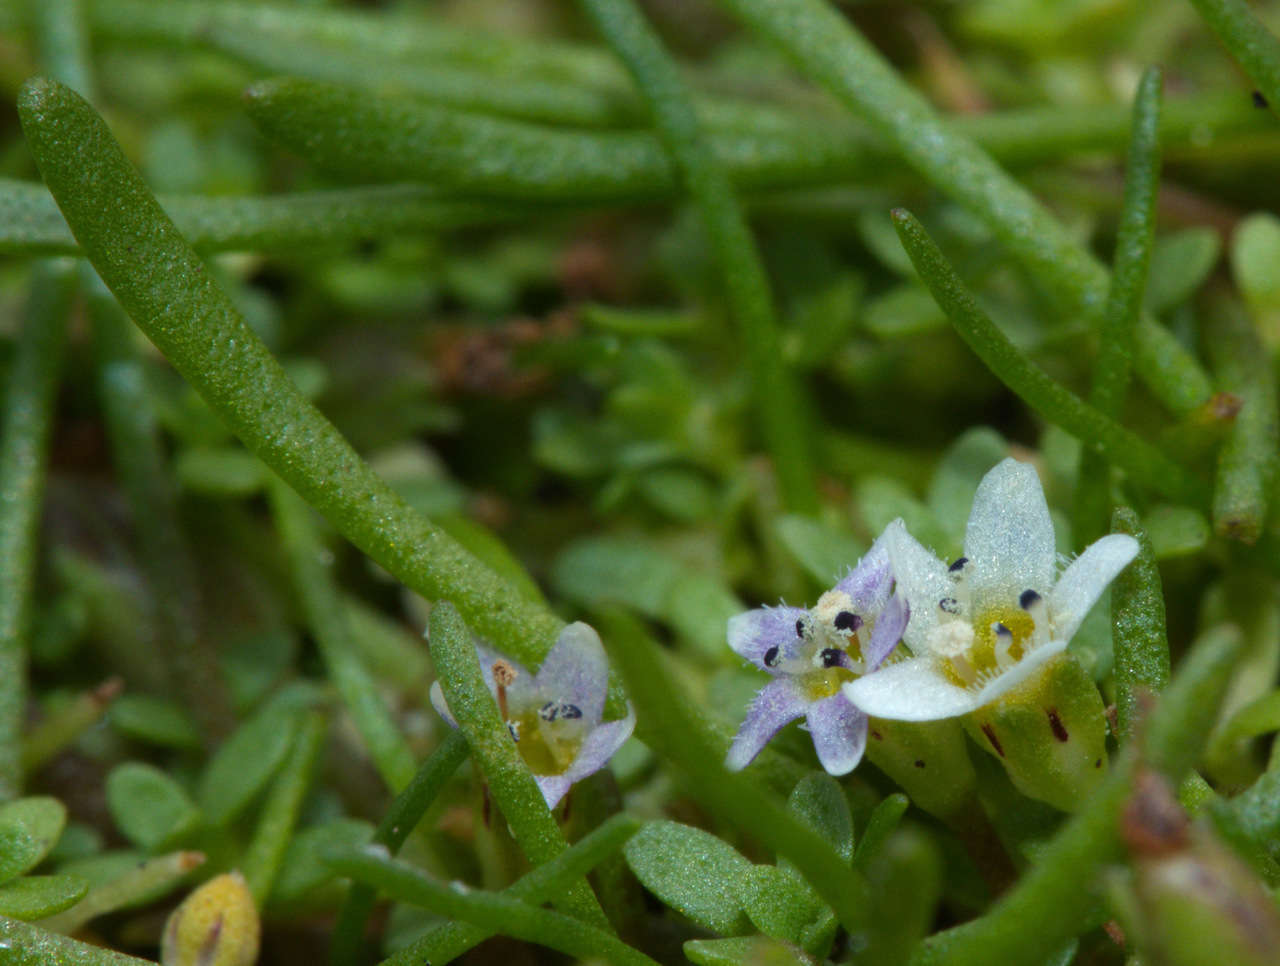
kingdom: Plantae
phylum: Tracheophyta
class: Magnoliopsida
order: Lamiales
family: Scrophulariaceae
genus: Limosella
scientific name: Limosella australis
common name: Welsh mudwort
